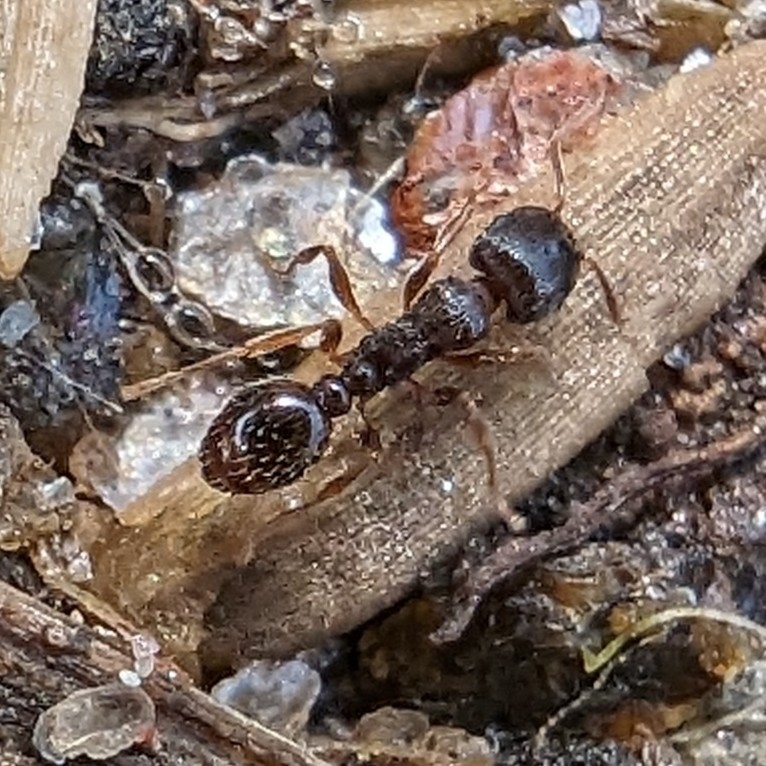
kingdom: Animalia
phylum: Arthropoda
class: Insecta
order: Hymenoptera
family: Formicidae
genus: Tetramorium
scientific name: Tetramorium immigrans
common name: Pavement ant
